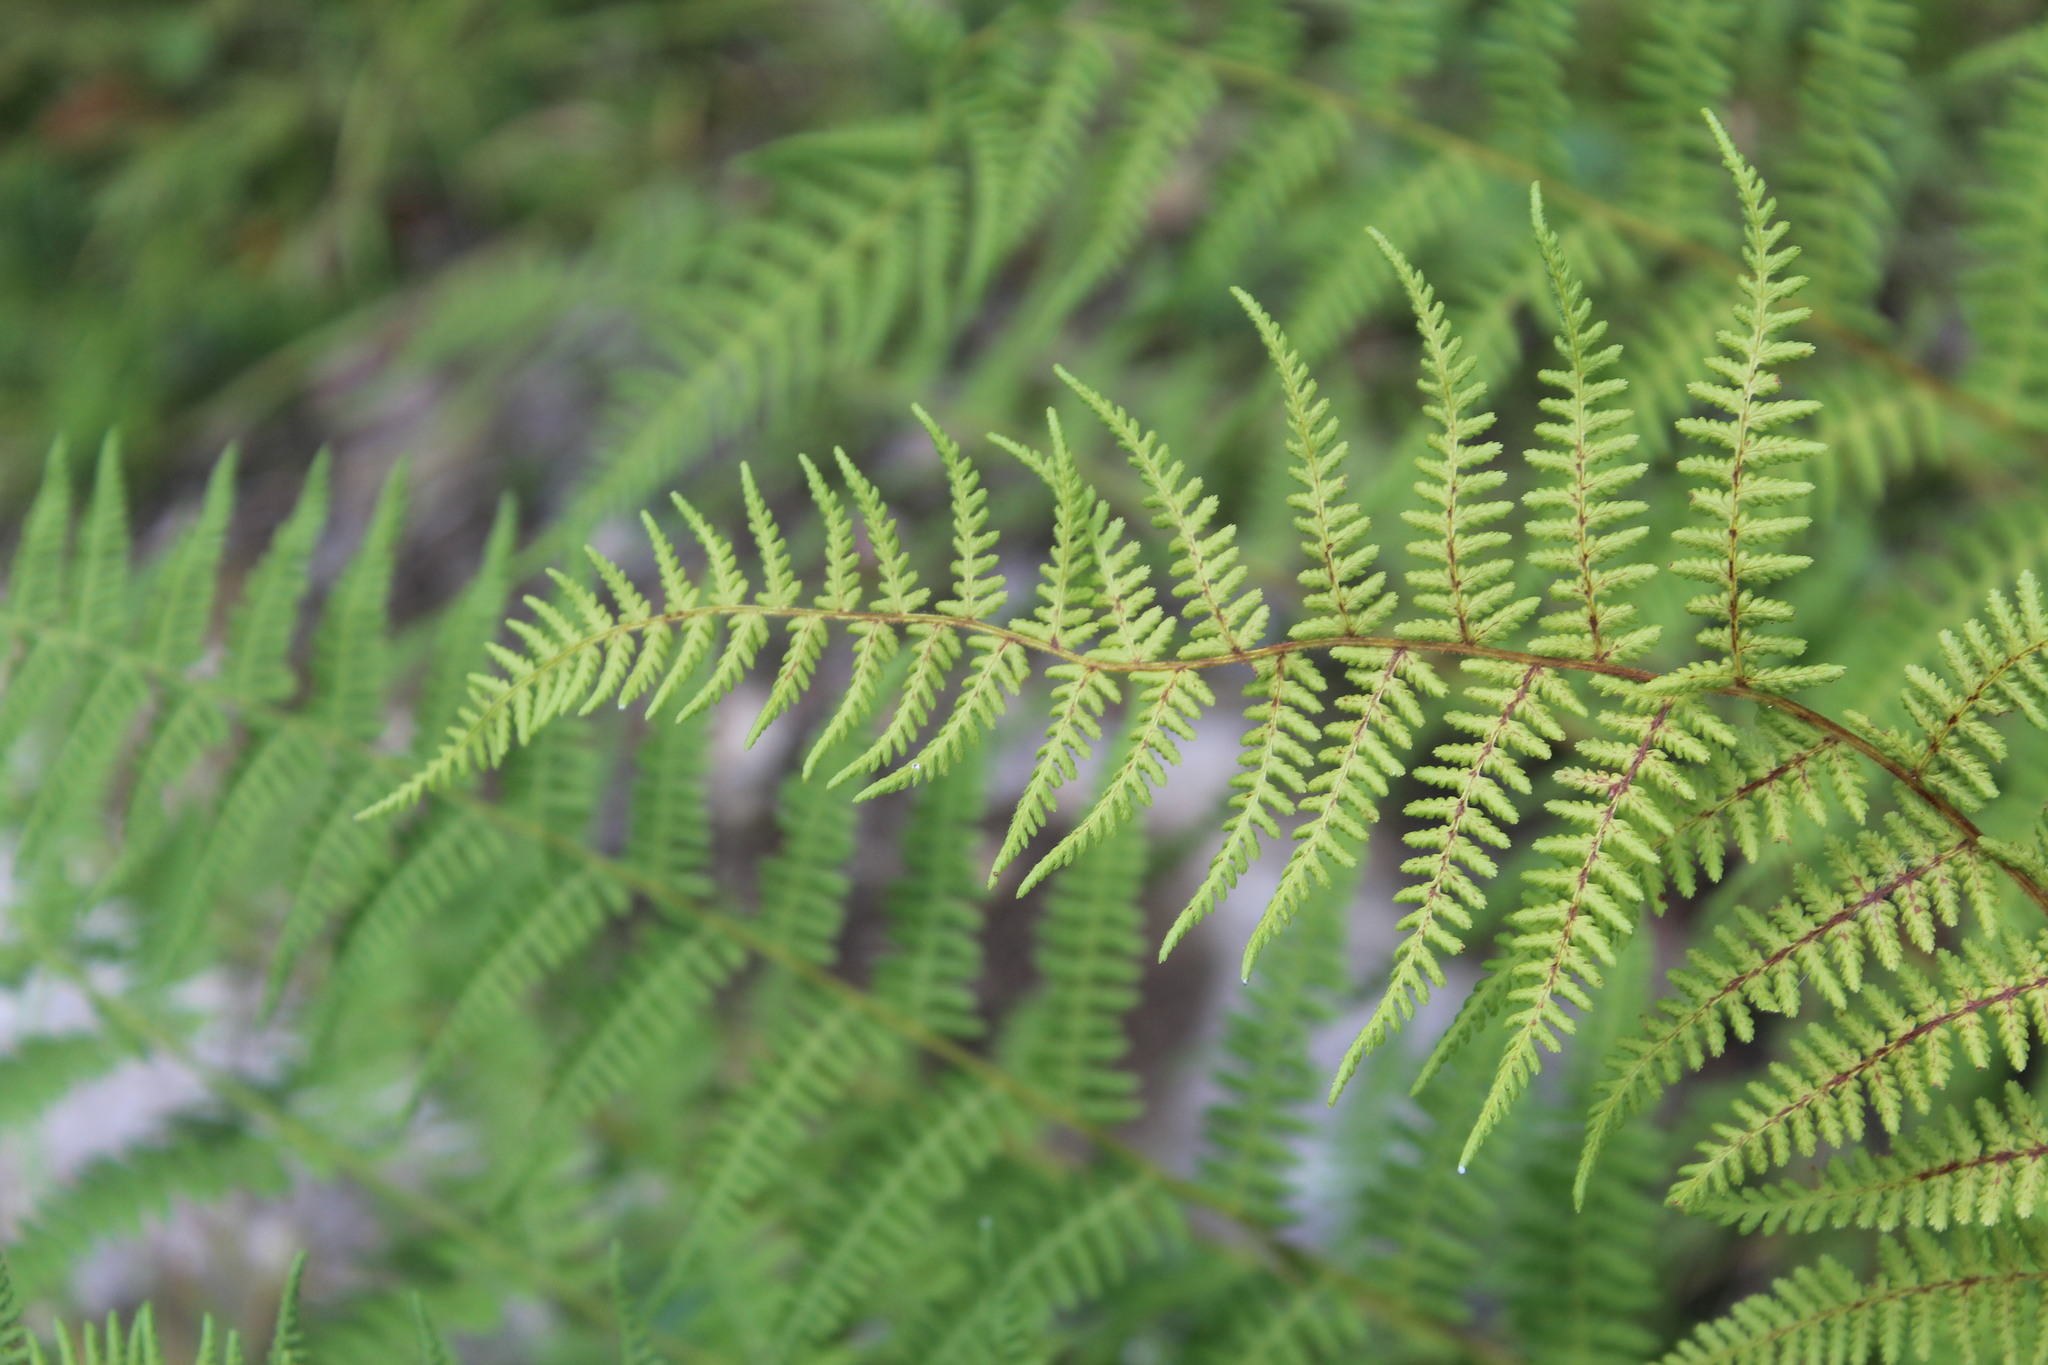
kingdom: Plantae
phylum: Tracheophyta
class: Polypodiopsida
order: Polypodiales
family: Dennstaedtiaceae
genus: Sitobolium
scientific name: Sitobolium punctilobum
